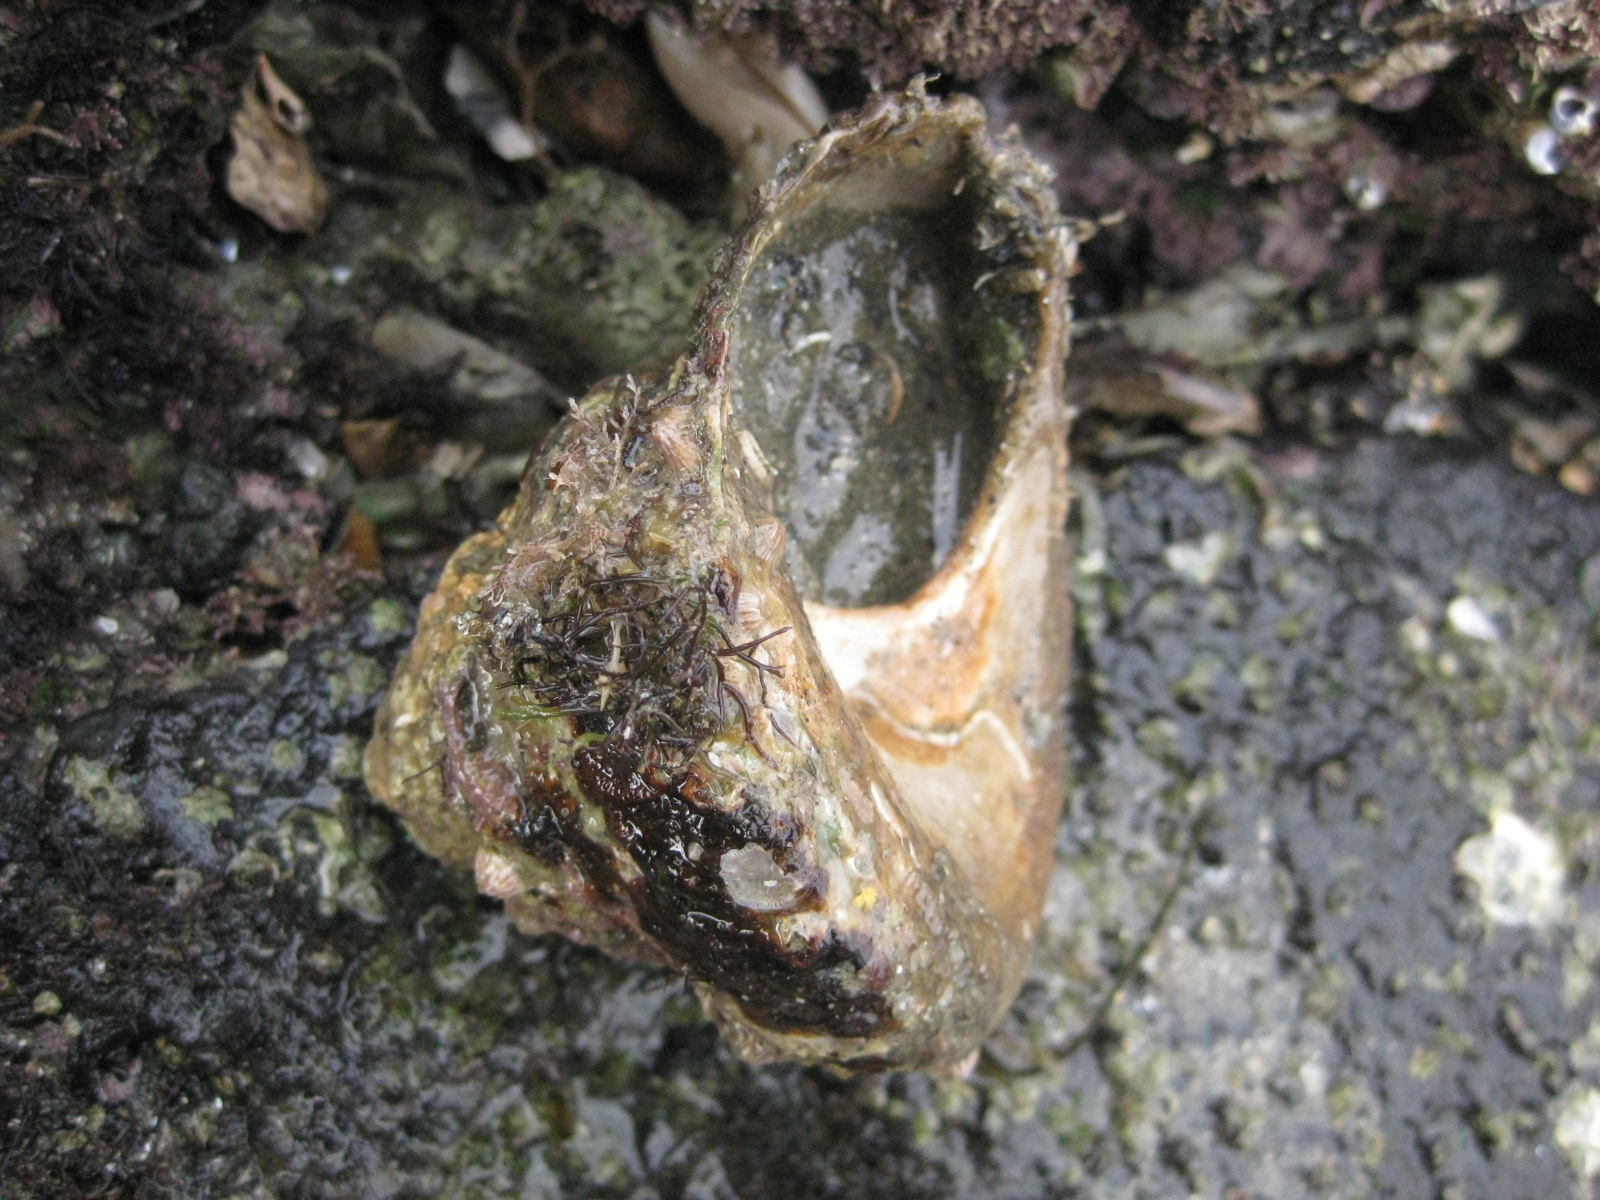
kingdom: Animalia
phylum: Mollusca
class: Gastropoda
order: Trochida
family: Turbinidae
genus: Cookia
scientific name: Cookia sulcata
